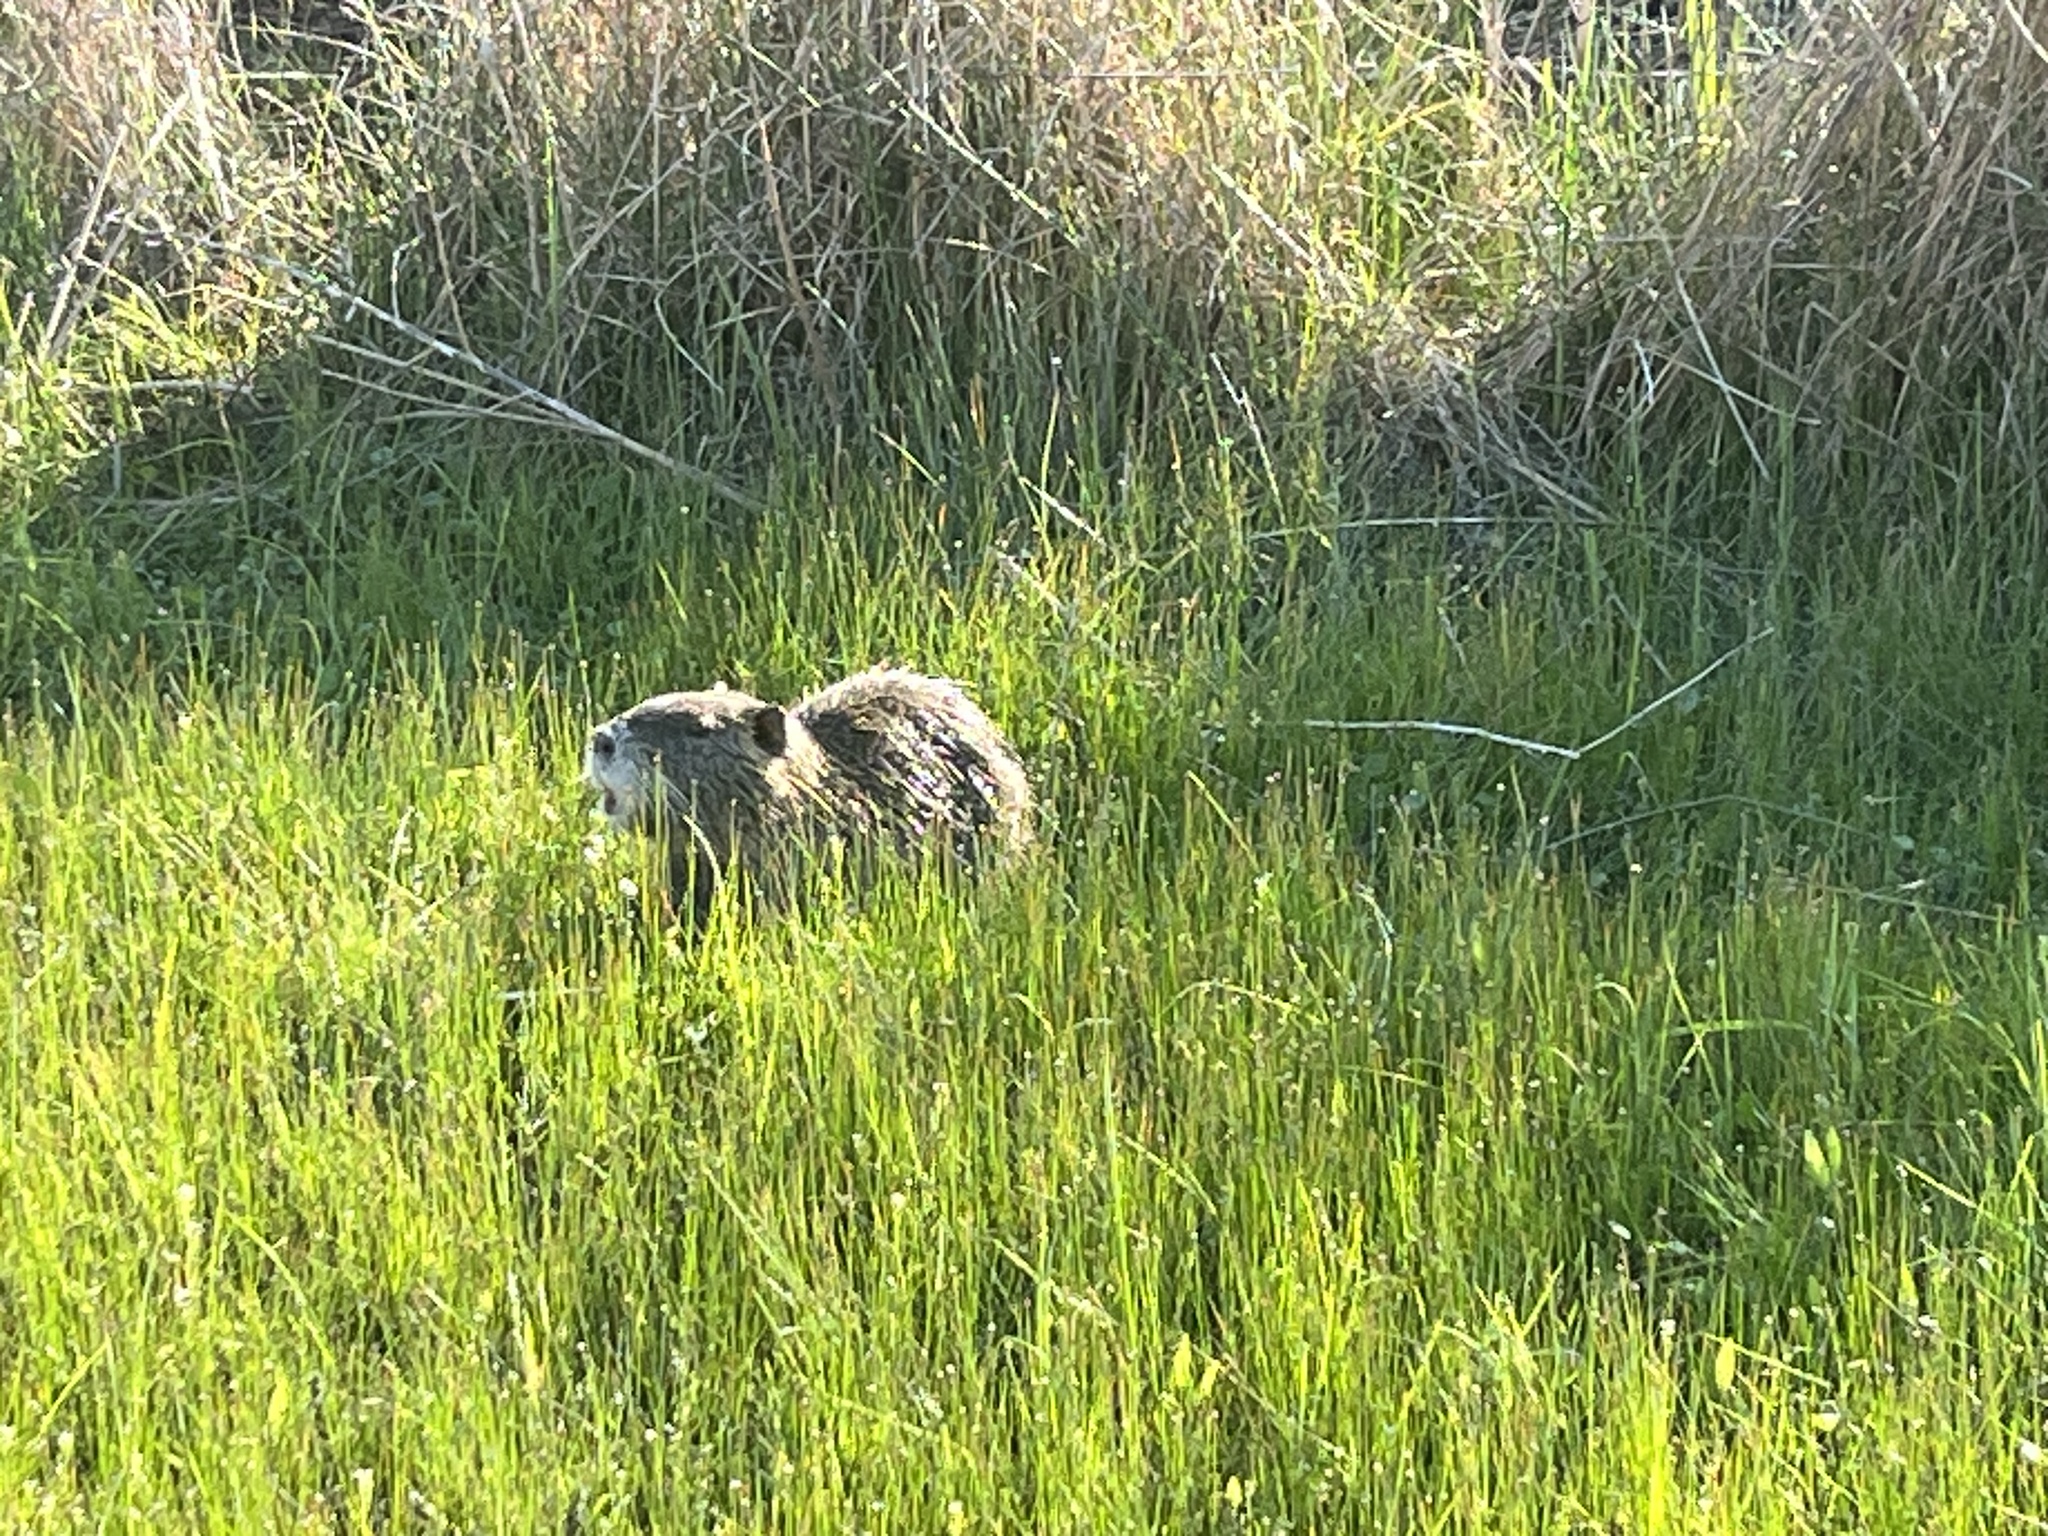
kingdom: Animalia
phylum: Chordata
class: Mammalia
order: Rodentia
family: Myocastoridae
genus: Myocastor
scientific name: Myocastor coypus
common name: Coypu
